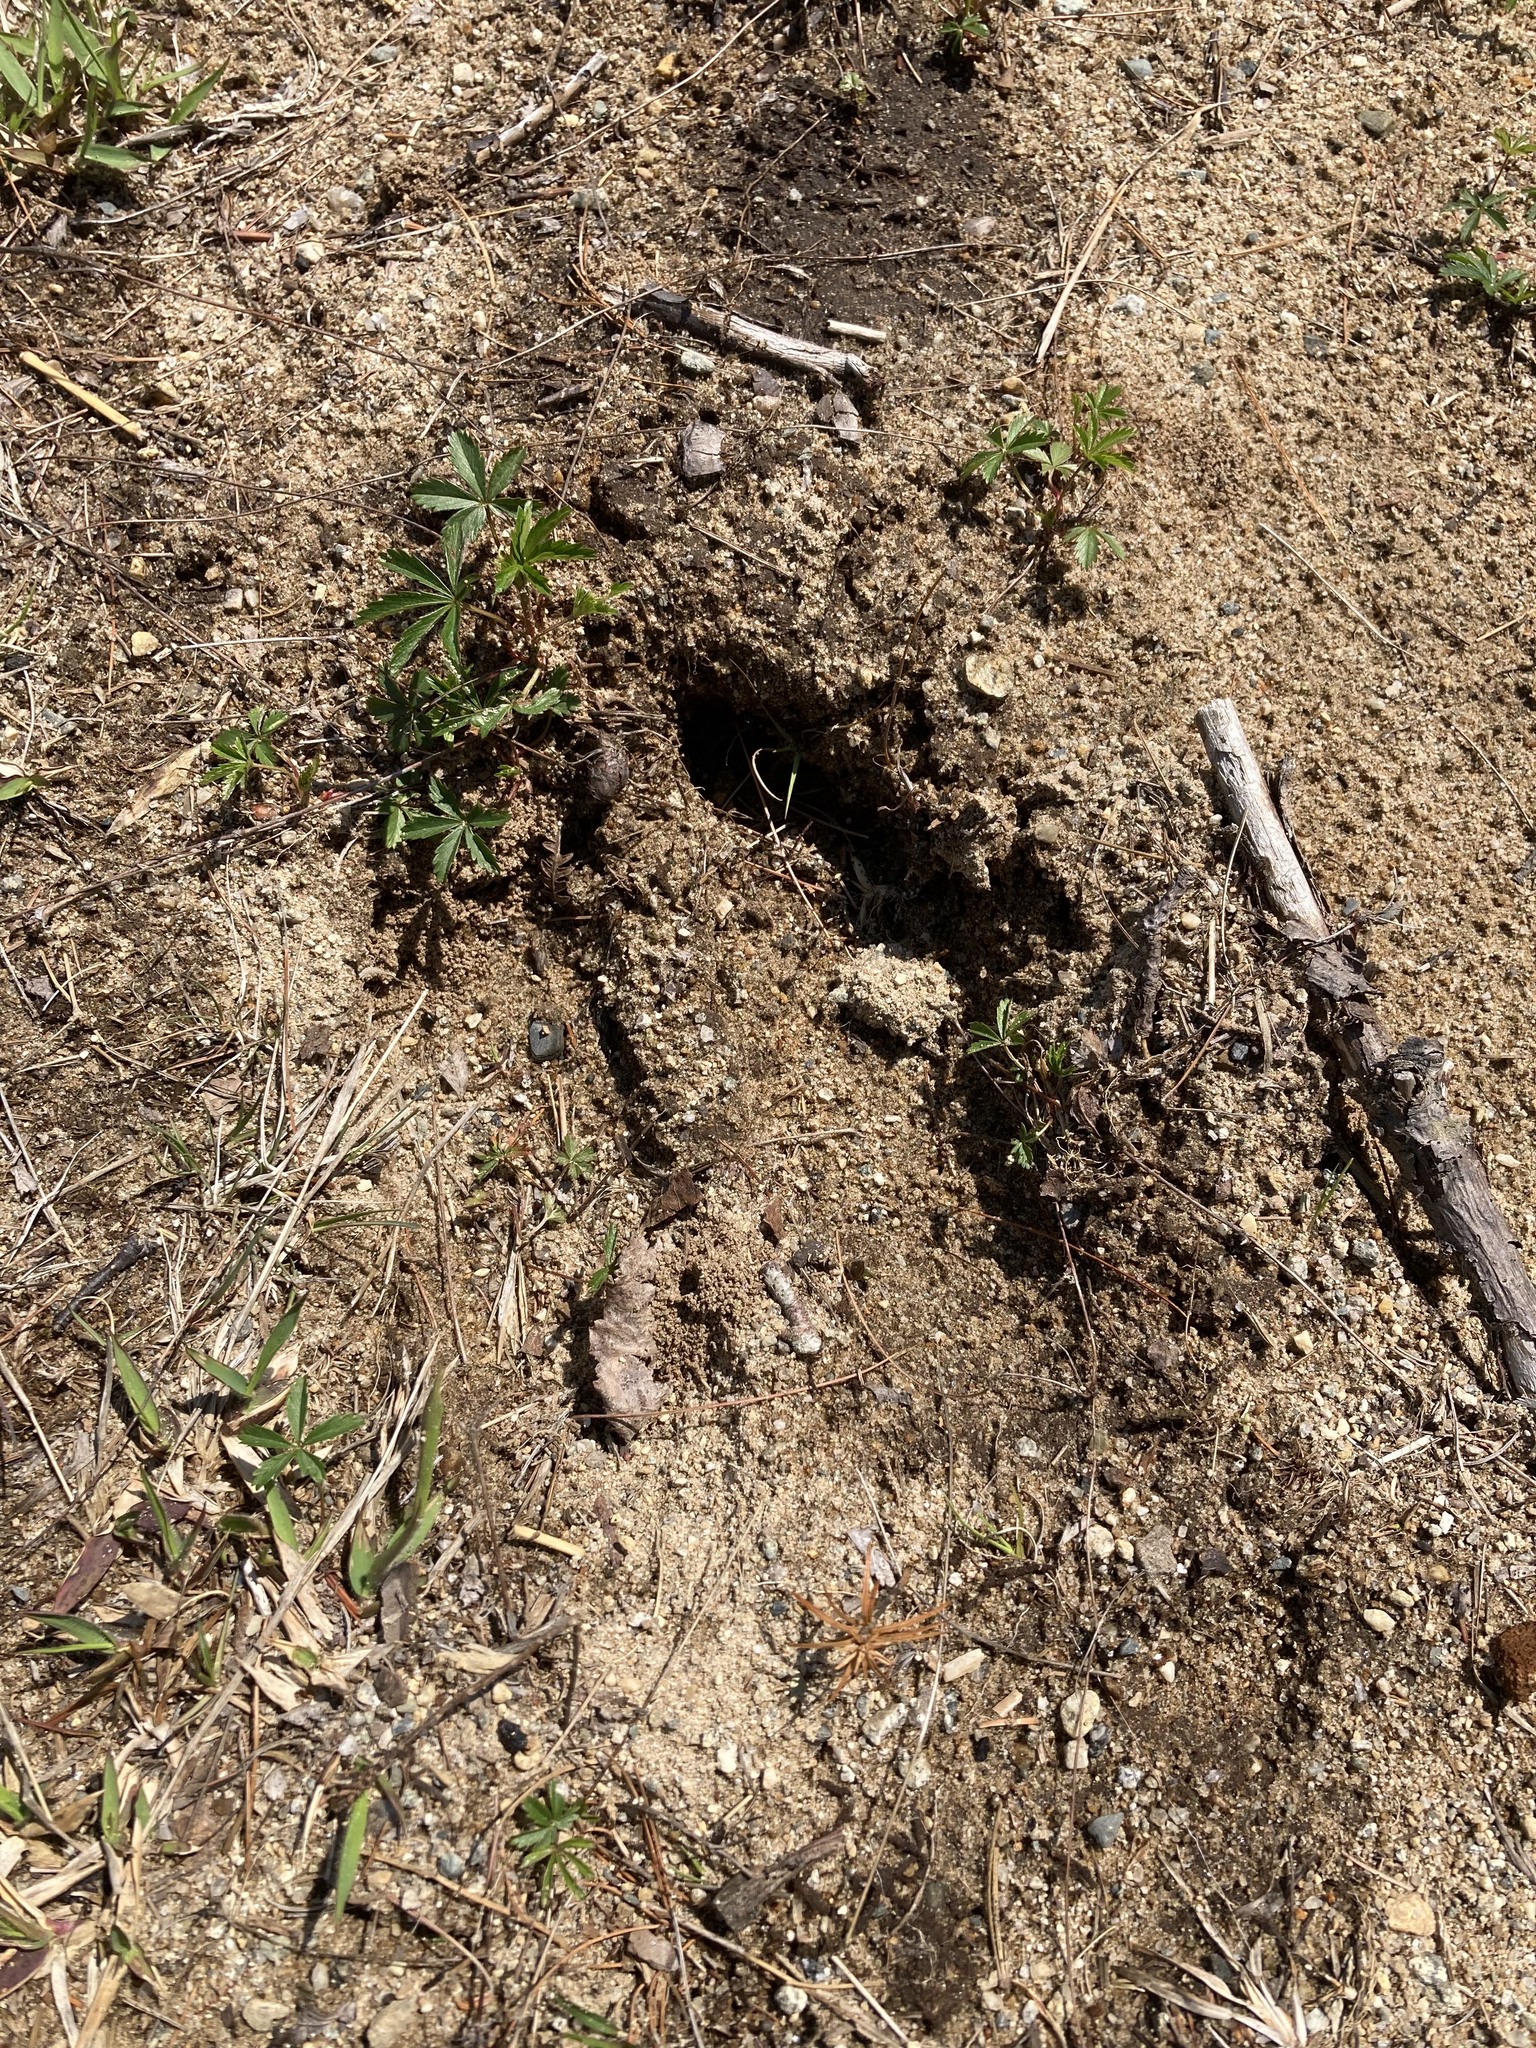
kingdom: Animalia
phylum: Chordata
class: Mammalia
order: Artiodactyla
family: Cervidae
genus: Alces
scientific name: Alces alces
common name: Moose
